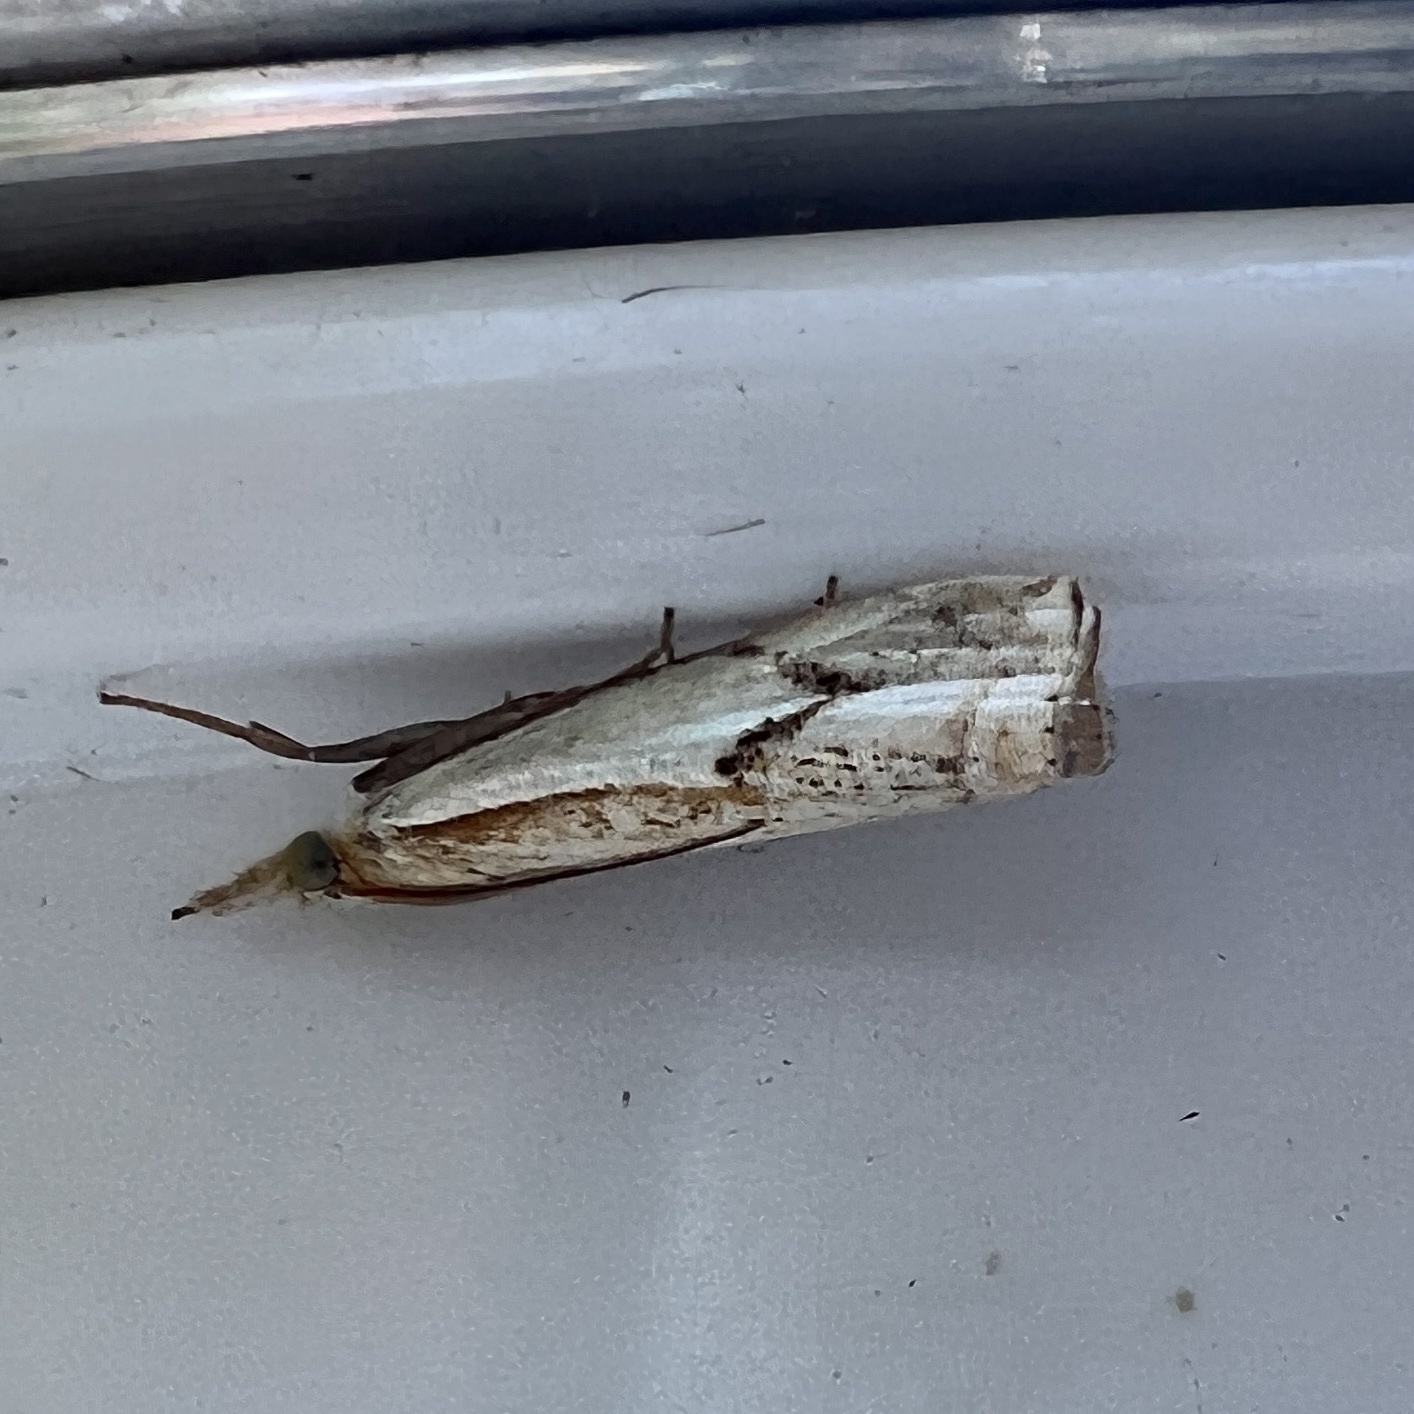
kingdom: Animalia
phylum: Arthropoda
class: Insecta
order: Lepidoptera
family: Crambidae
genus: Crambus
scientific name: Crambus agitatellus
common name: Double-banded grass-veneer
